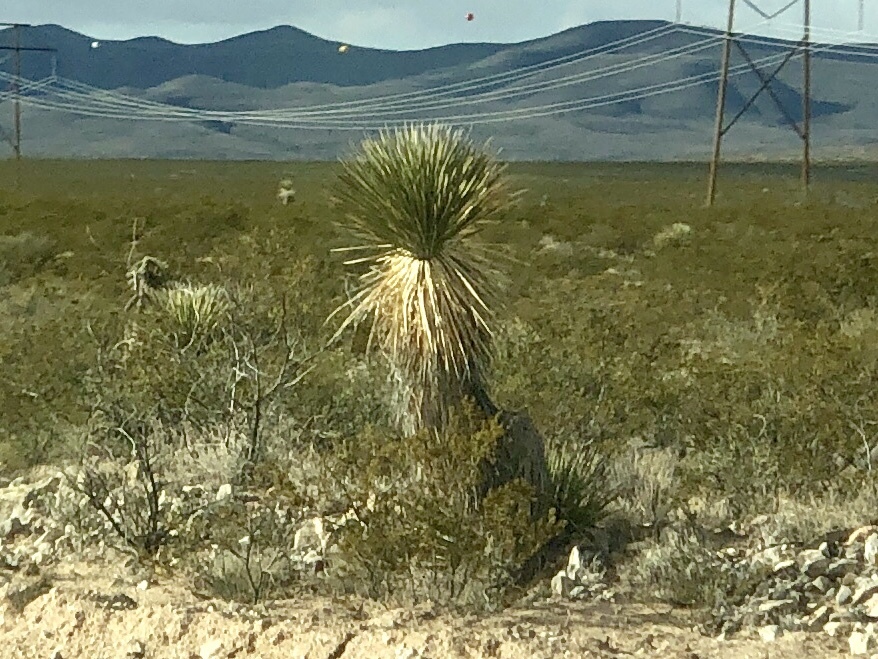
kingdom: Plantae
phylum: Tracheophyta
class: Liliopsida
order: Asparagales
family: Asparagaceae
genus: Yucca
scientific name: Yucca elata
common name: Palmella
